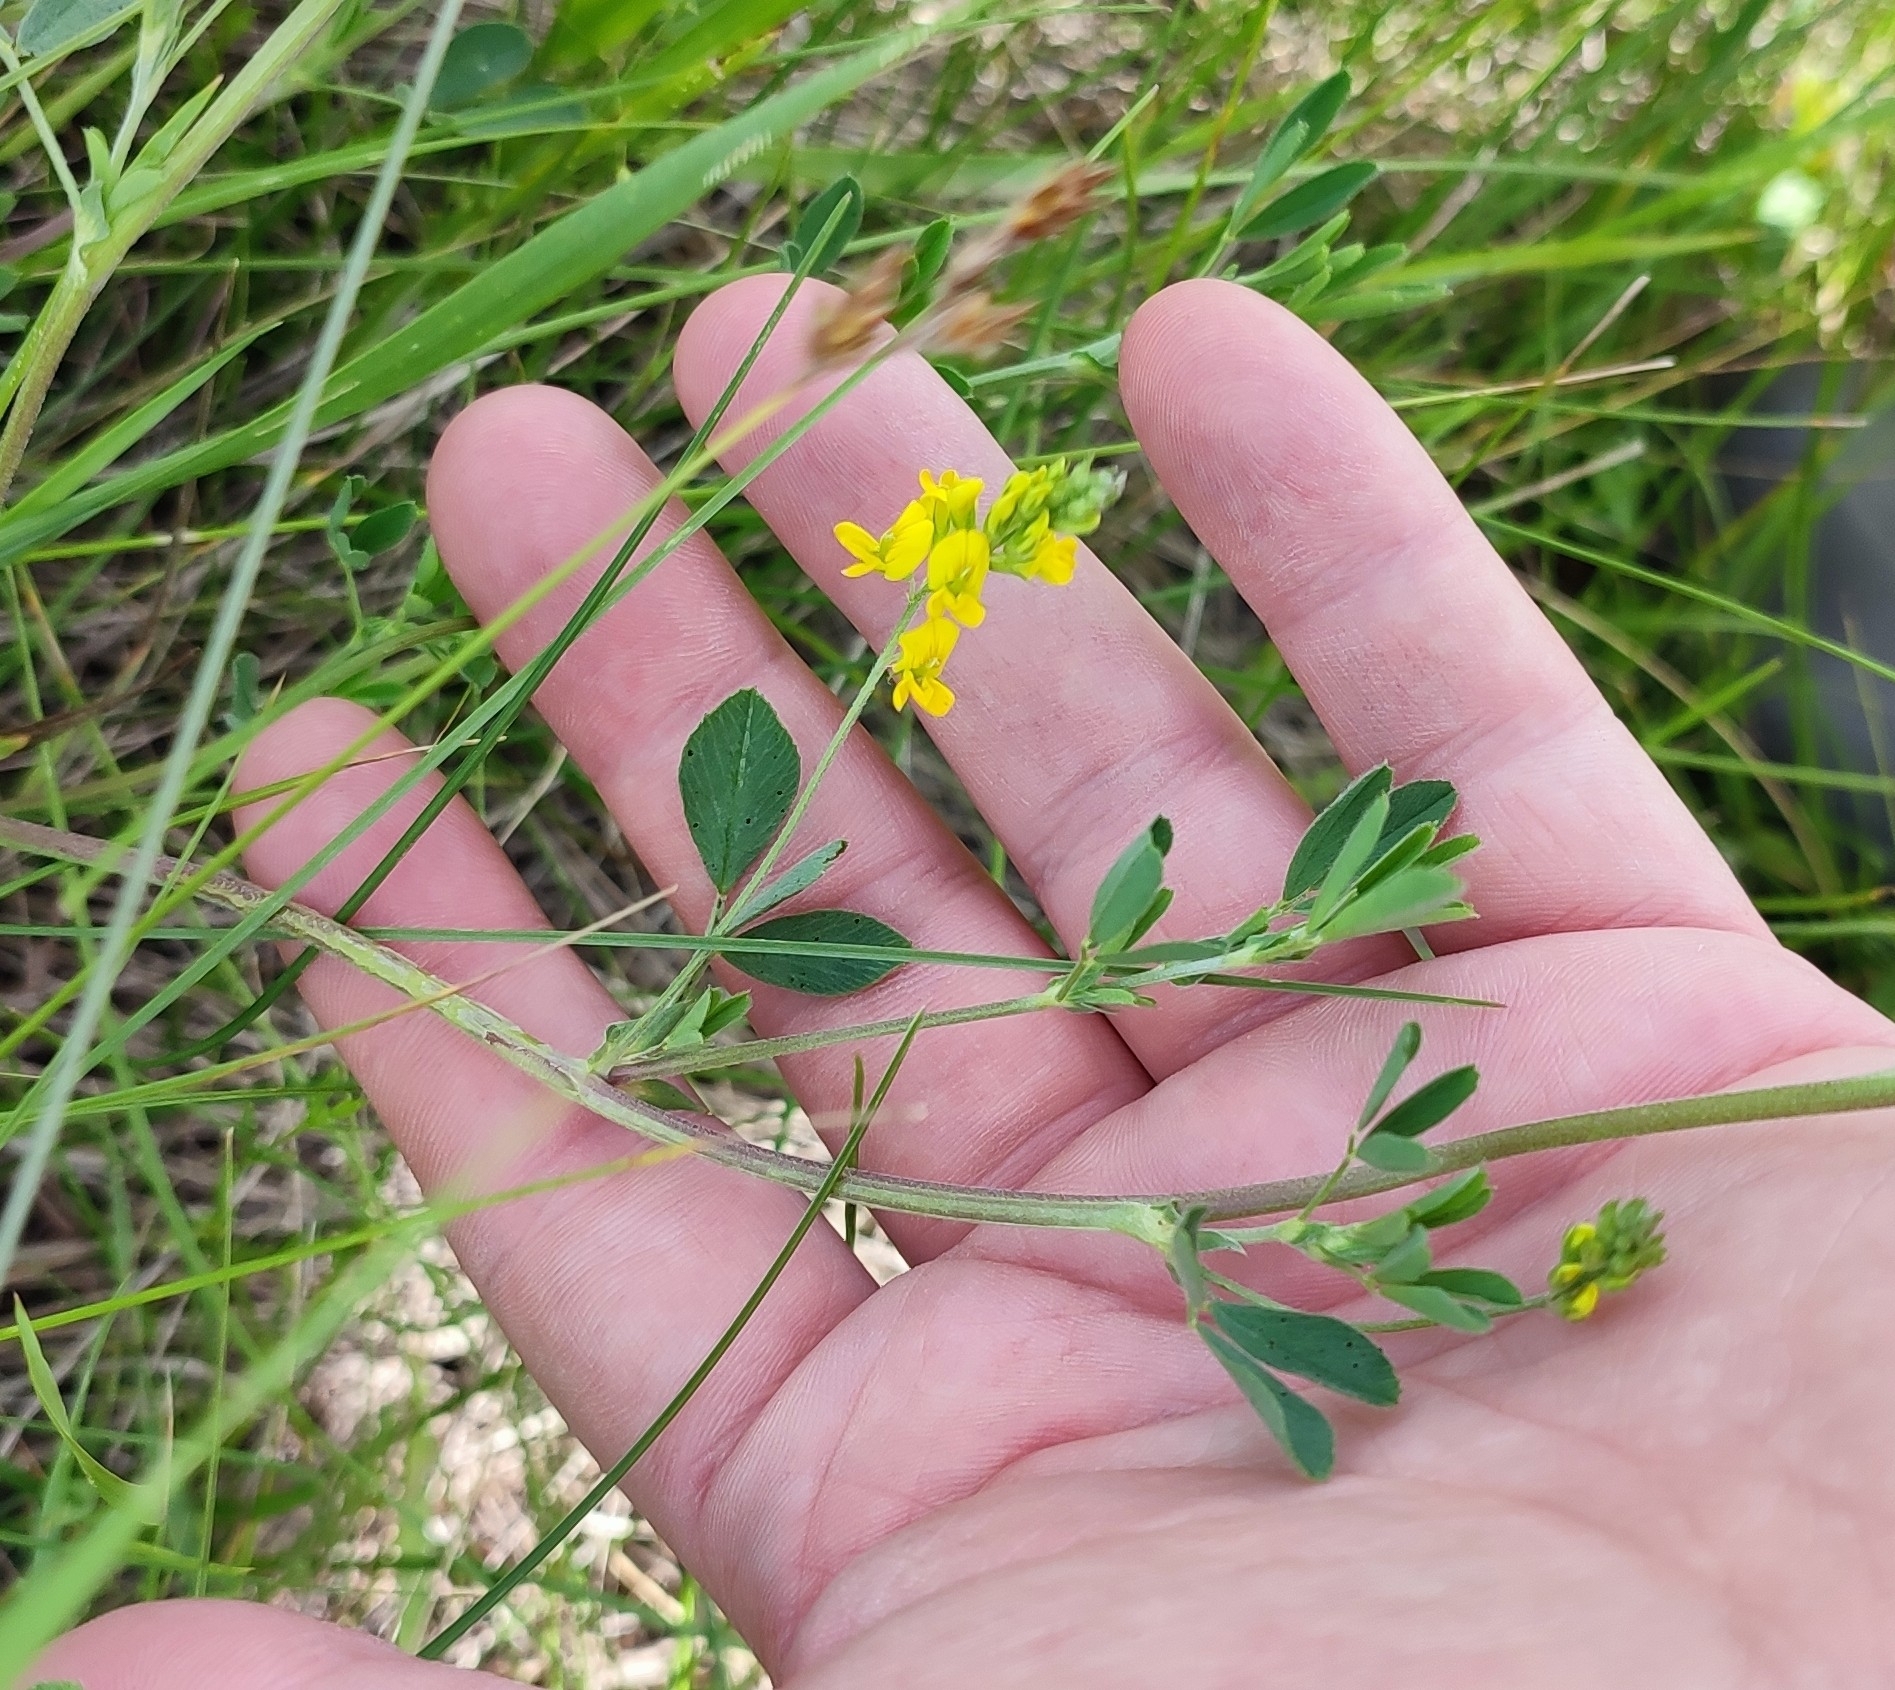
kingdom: Plantae
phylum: Tracheophyta
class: Magnoliopsida
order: Fabales
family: Fabaceae
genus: Medicago
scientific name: Medicago falcata
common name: Sickle medick
